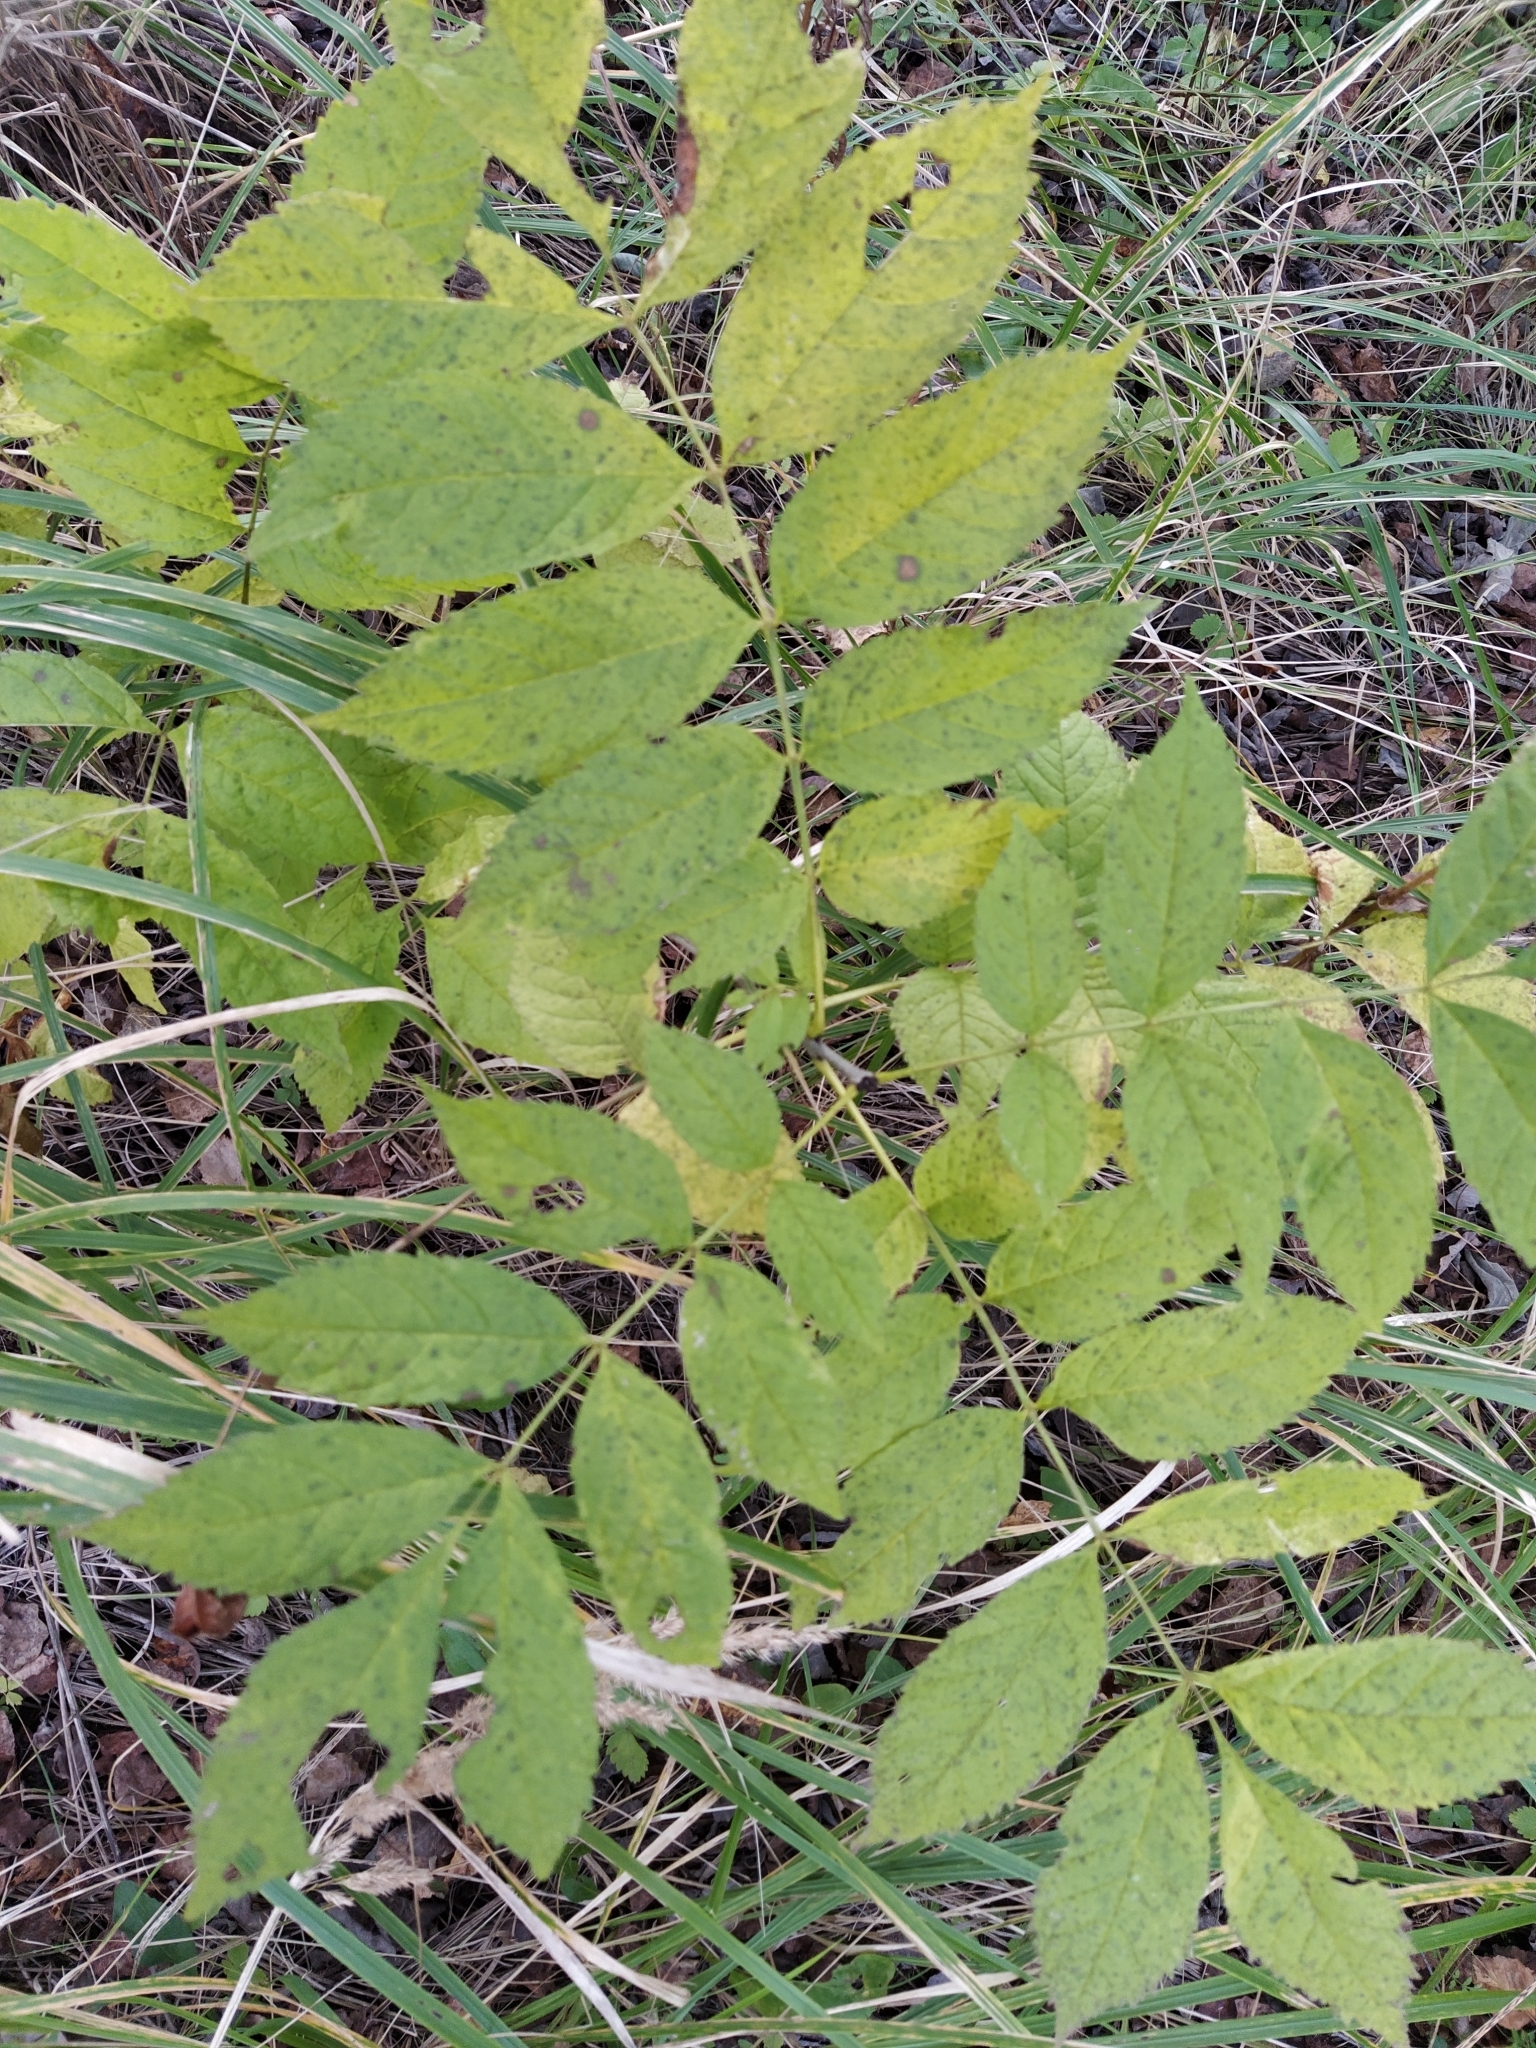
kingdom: Plantae
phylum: Tracheophyta
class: Magnoliopsida
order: Lamiales
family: Oleaceae
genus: Fraxinus
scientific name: Fraxinus excelsior
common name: European ash
